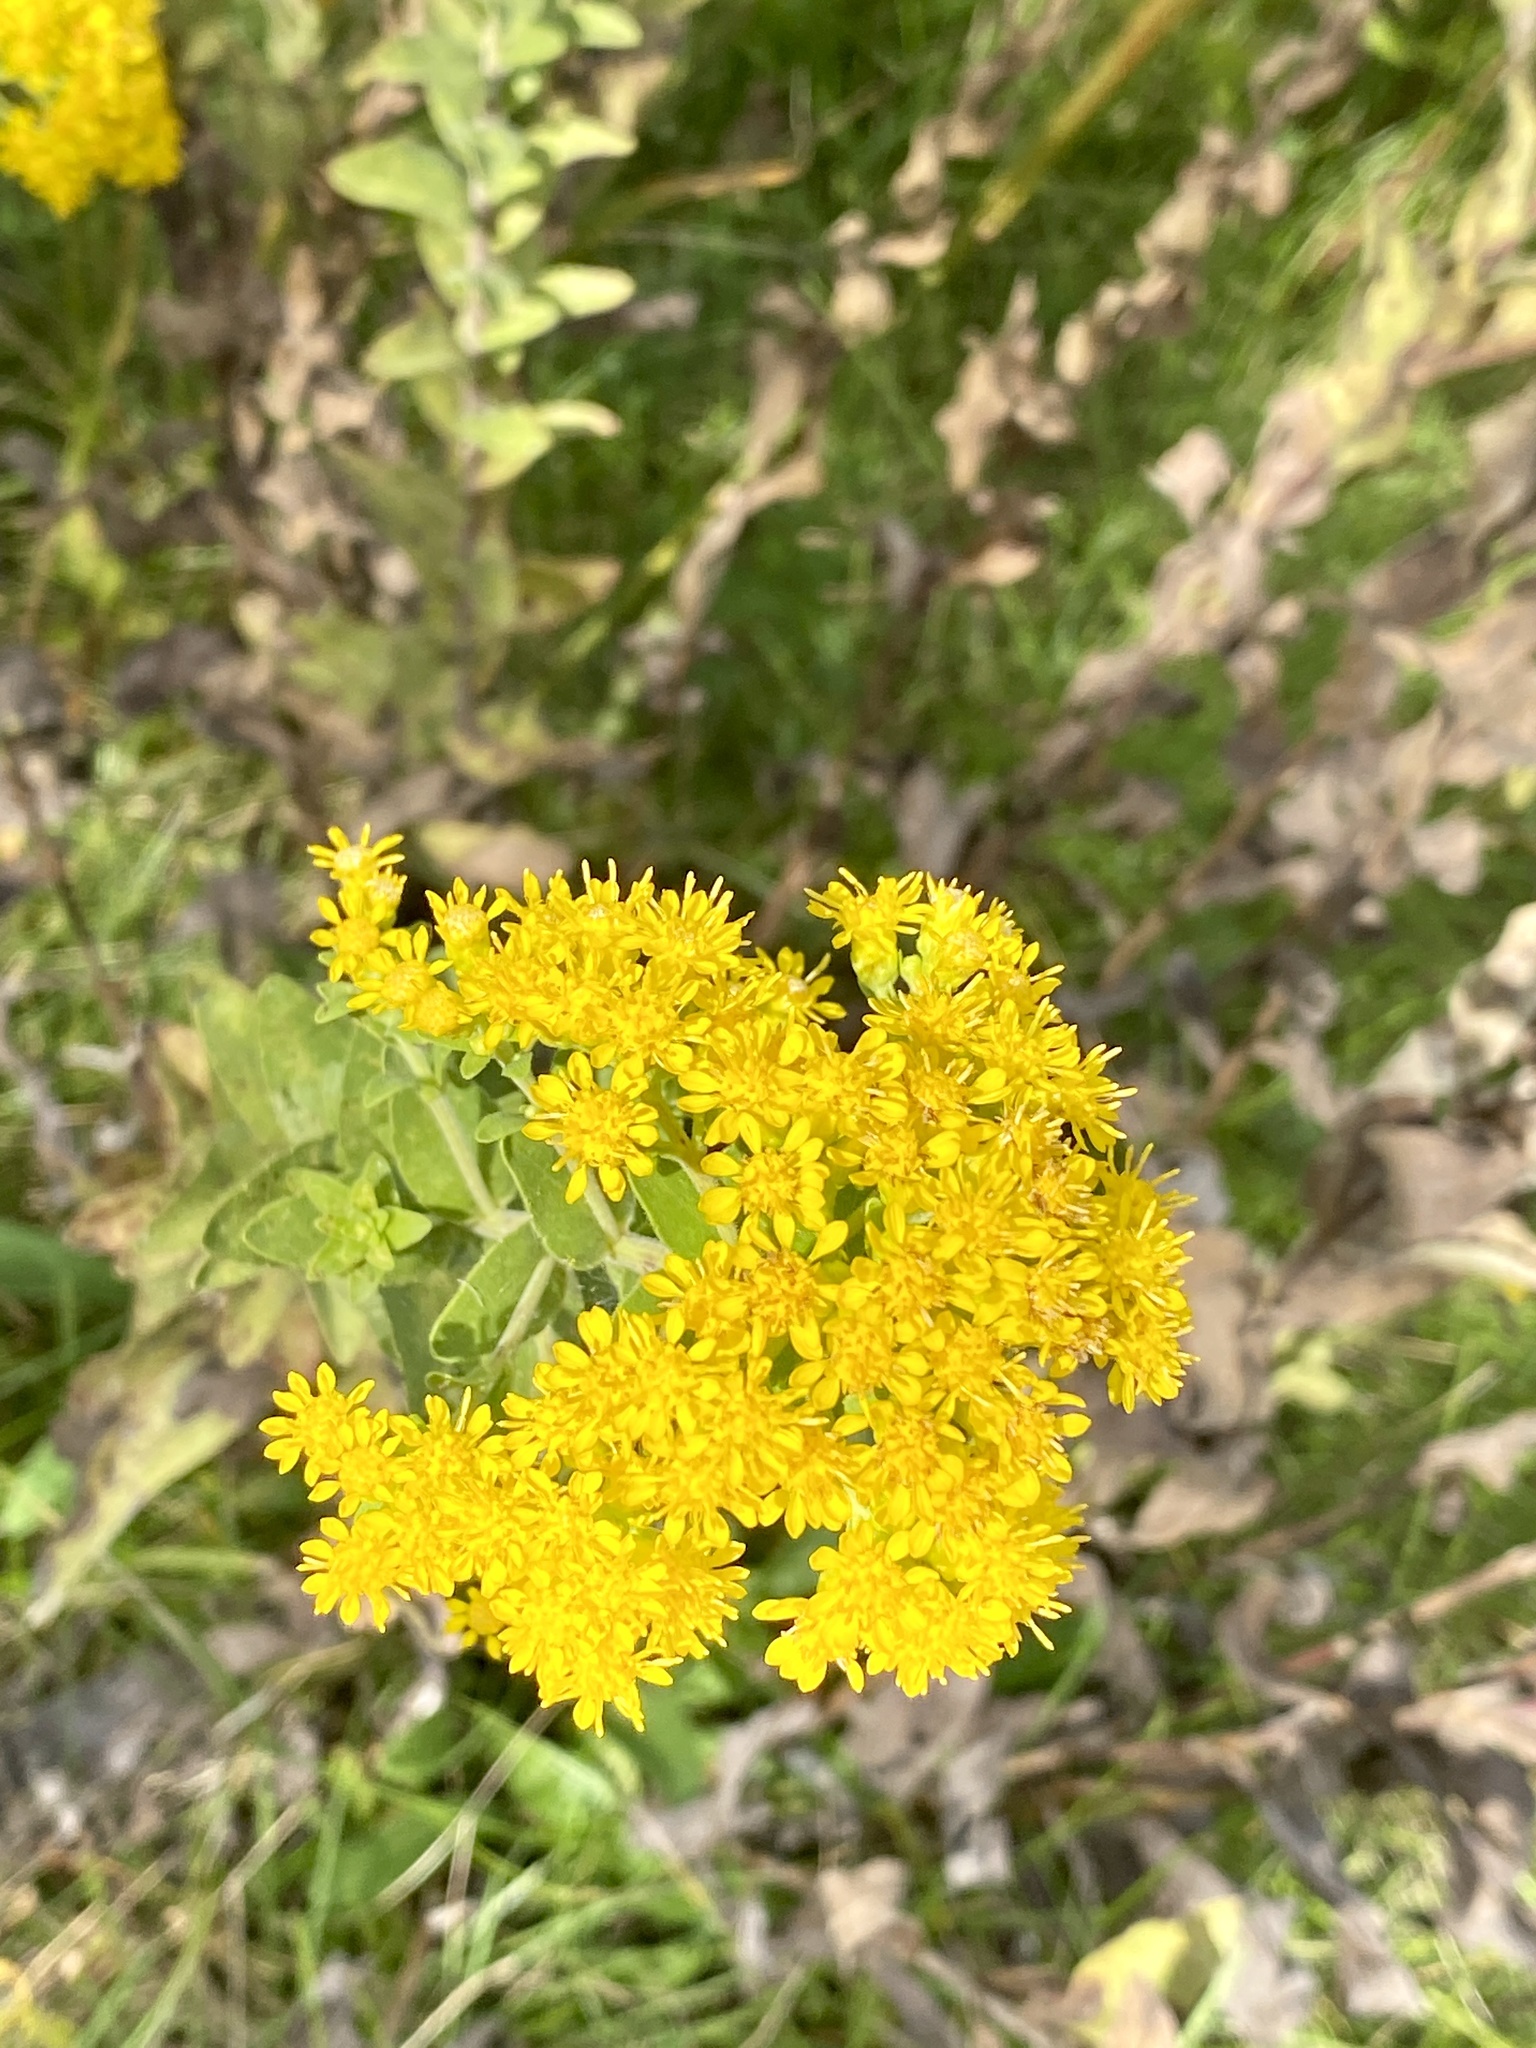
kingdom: Plantae
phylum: Tracheophyta
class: Magnoliopsida
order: Asterales
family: Asteraceae
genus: Solidago
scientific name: Solidago rigida
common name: Rigid goldenrod
